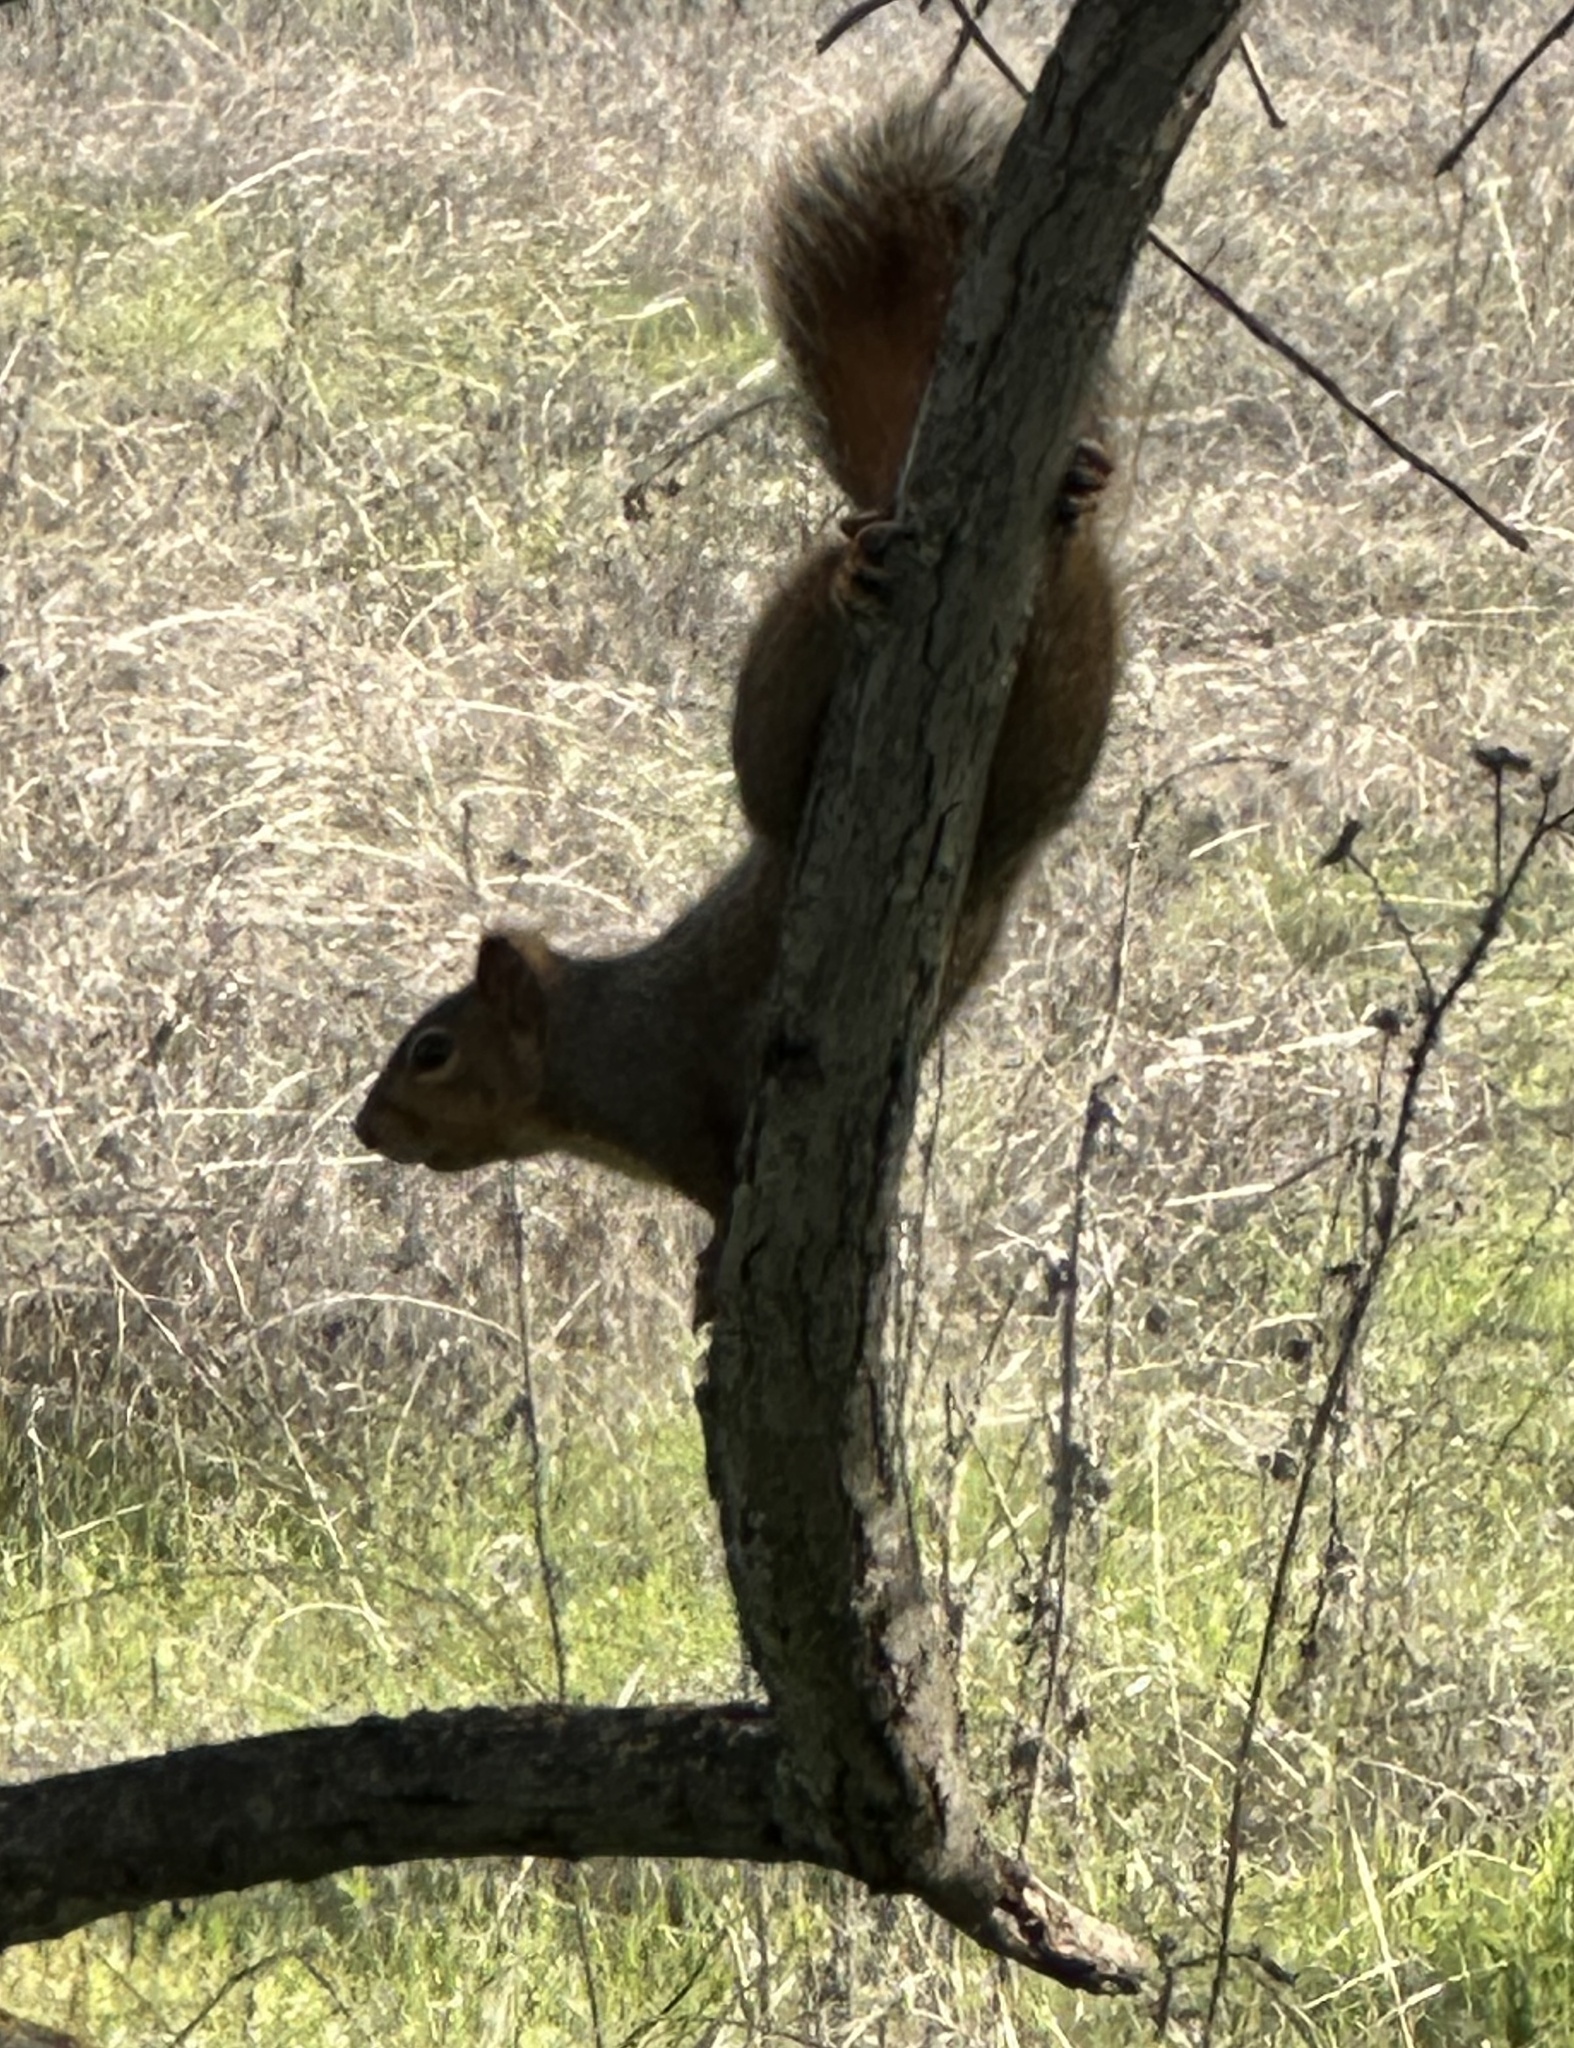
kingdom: Animalia
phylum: Chordata
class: Mammalia
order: Rodentia
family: Sciuridae
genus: Sciurus
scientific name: Sciurus niger
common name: Fox squirrel
